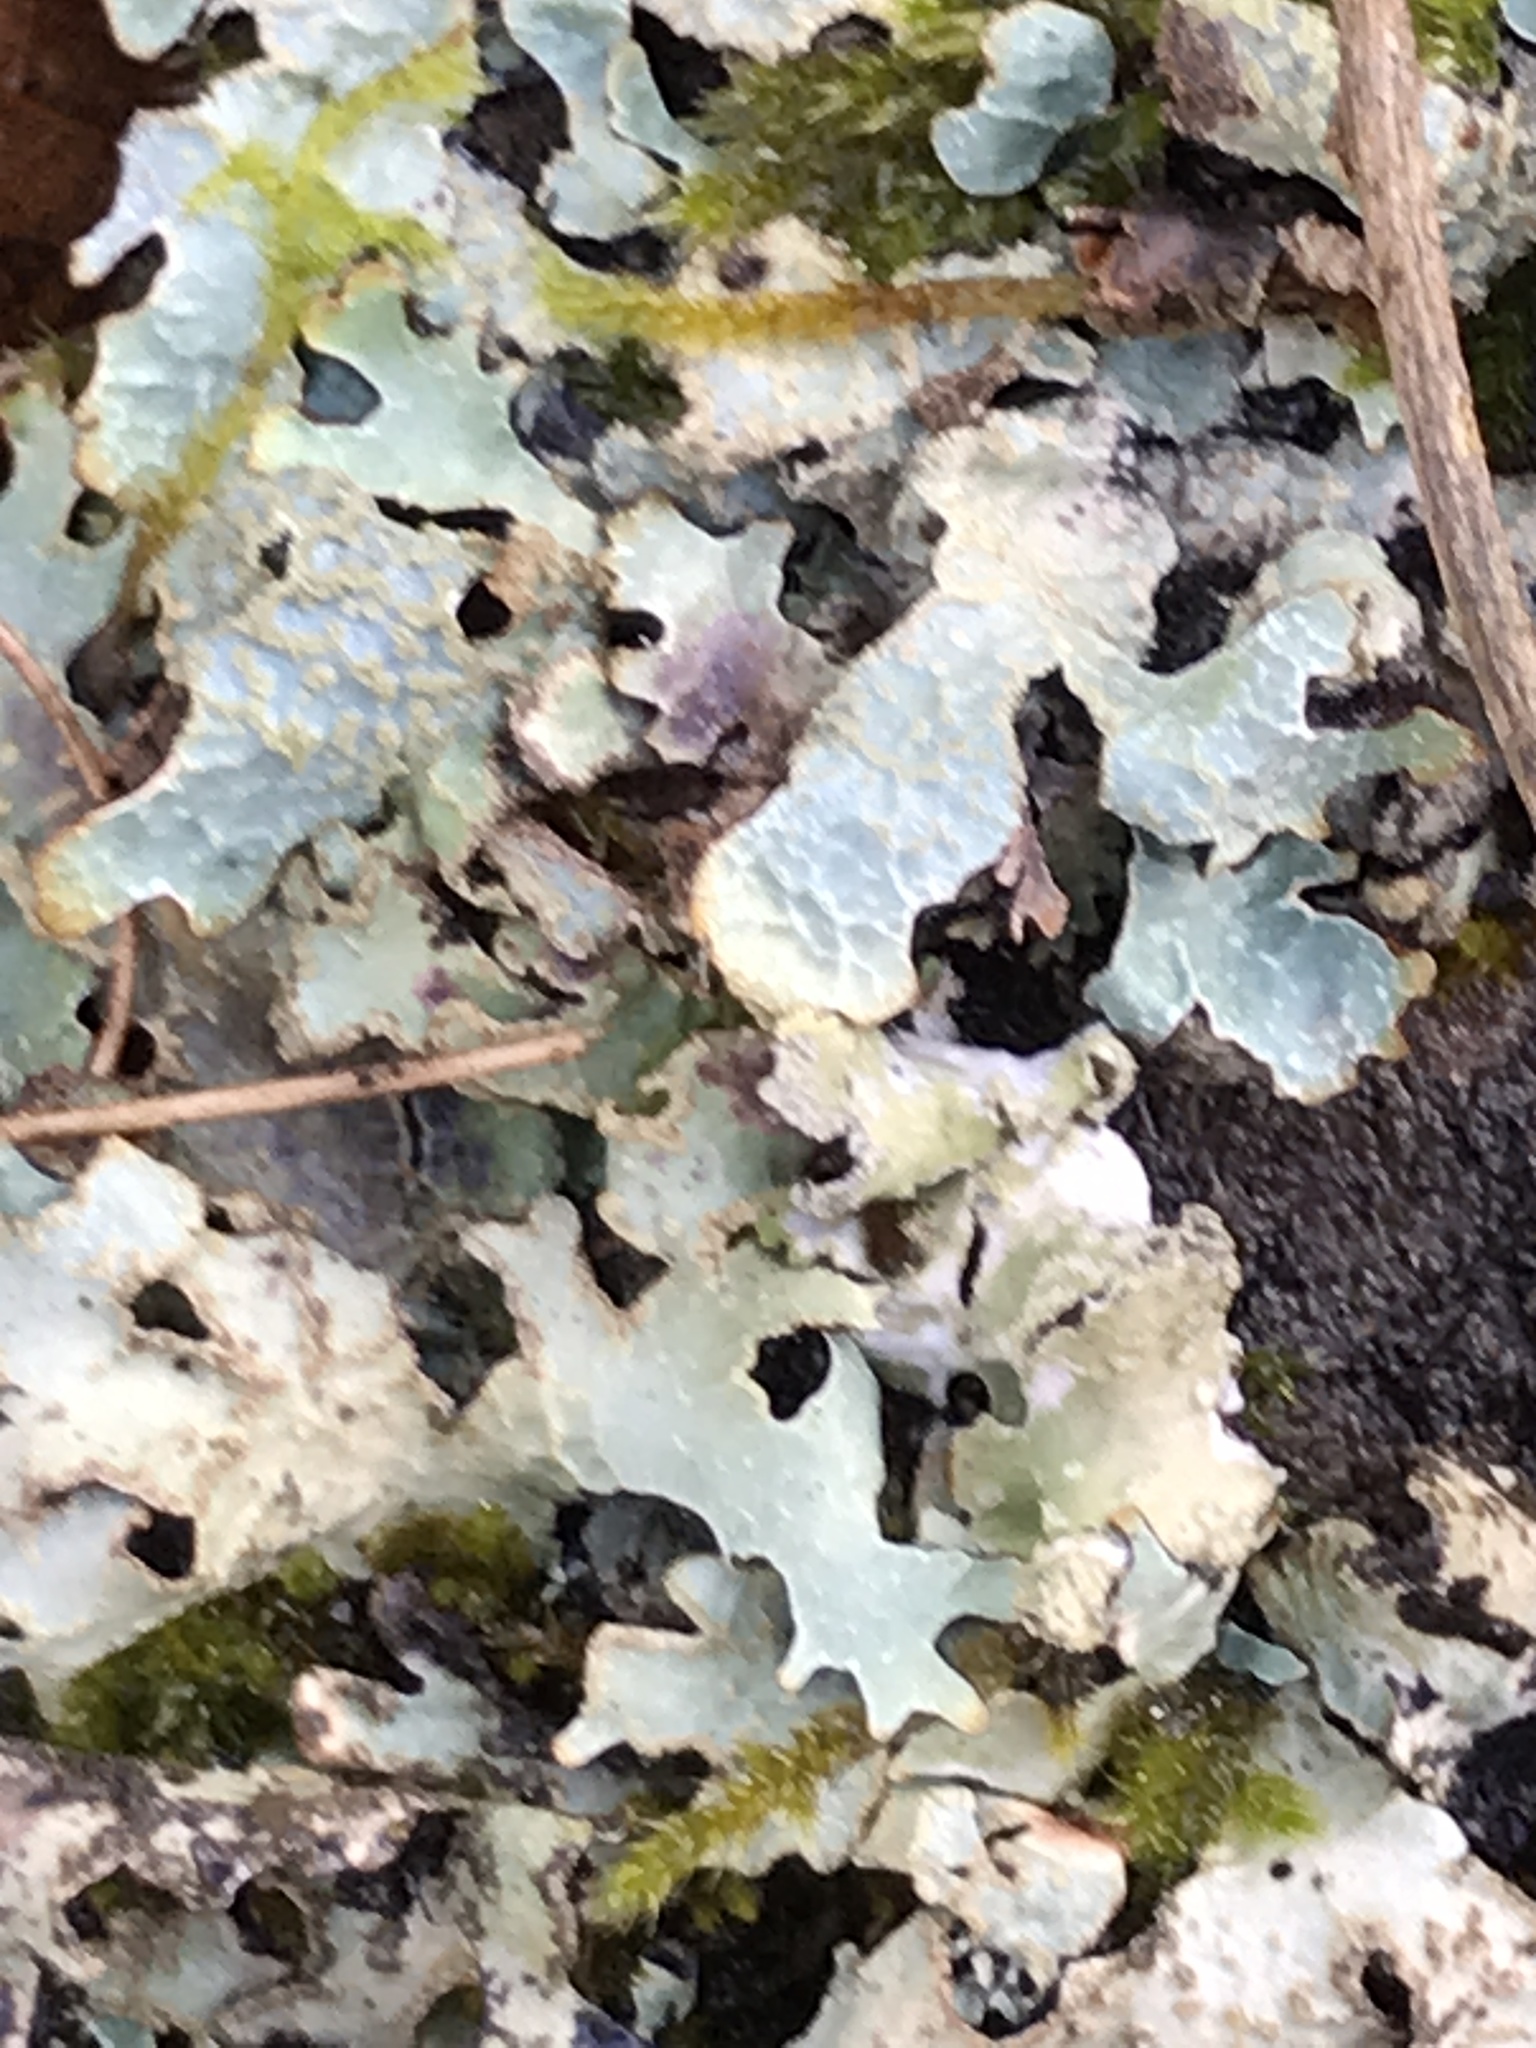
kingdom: Fungi
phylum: Ascomycota
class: Lecanoromycetes
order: Lecanorales
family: Parmeliaceae
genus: Parmelia
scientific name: Parmelia sulcata
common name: Netted shield lichen
